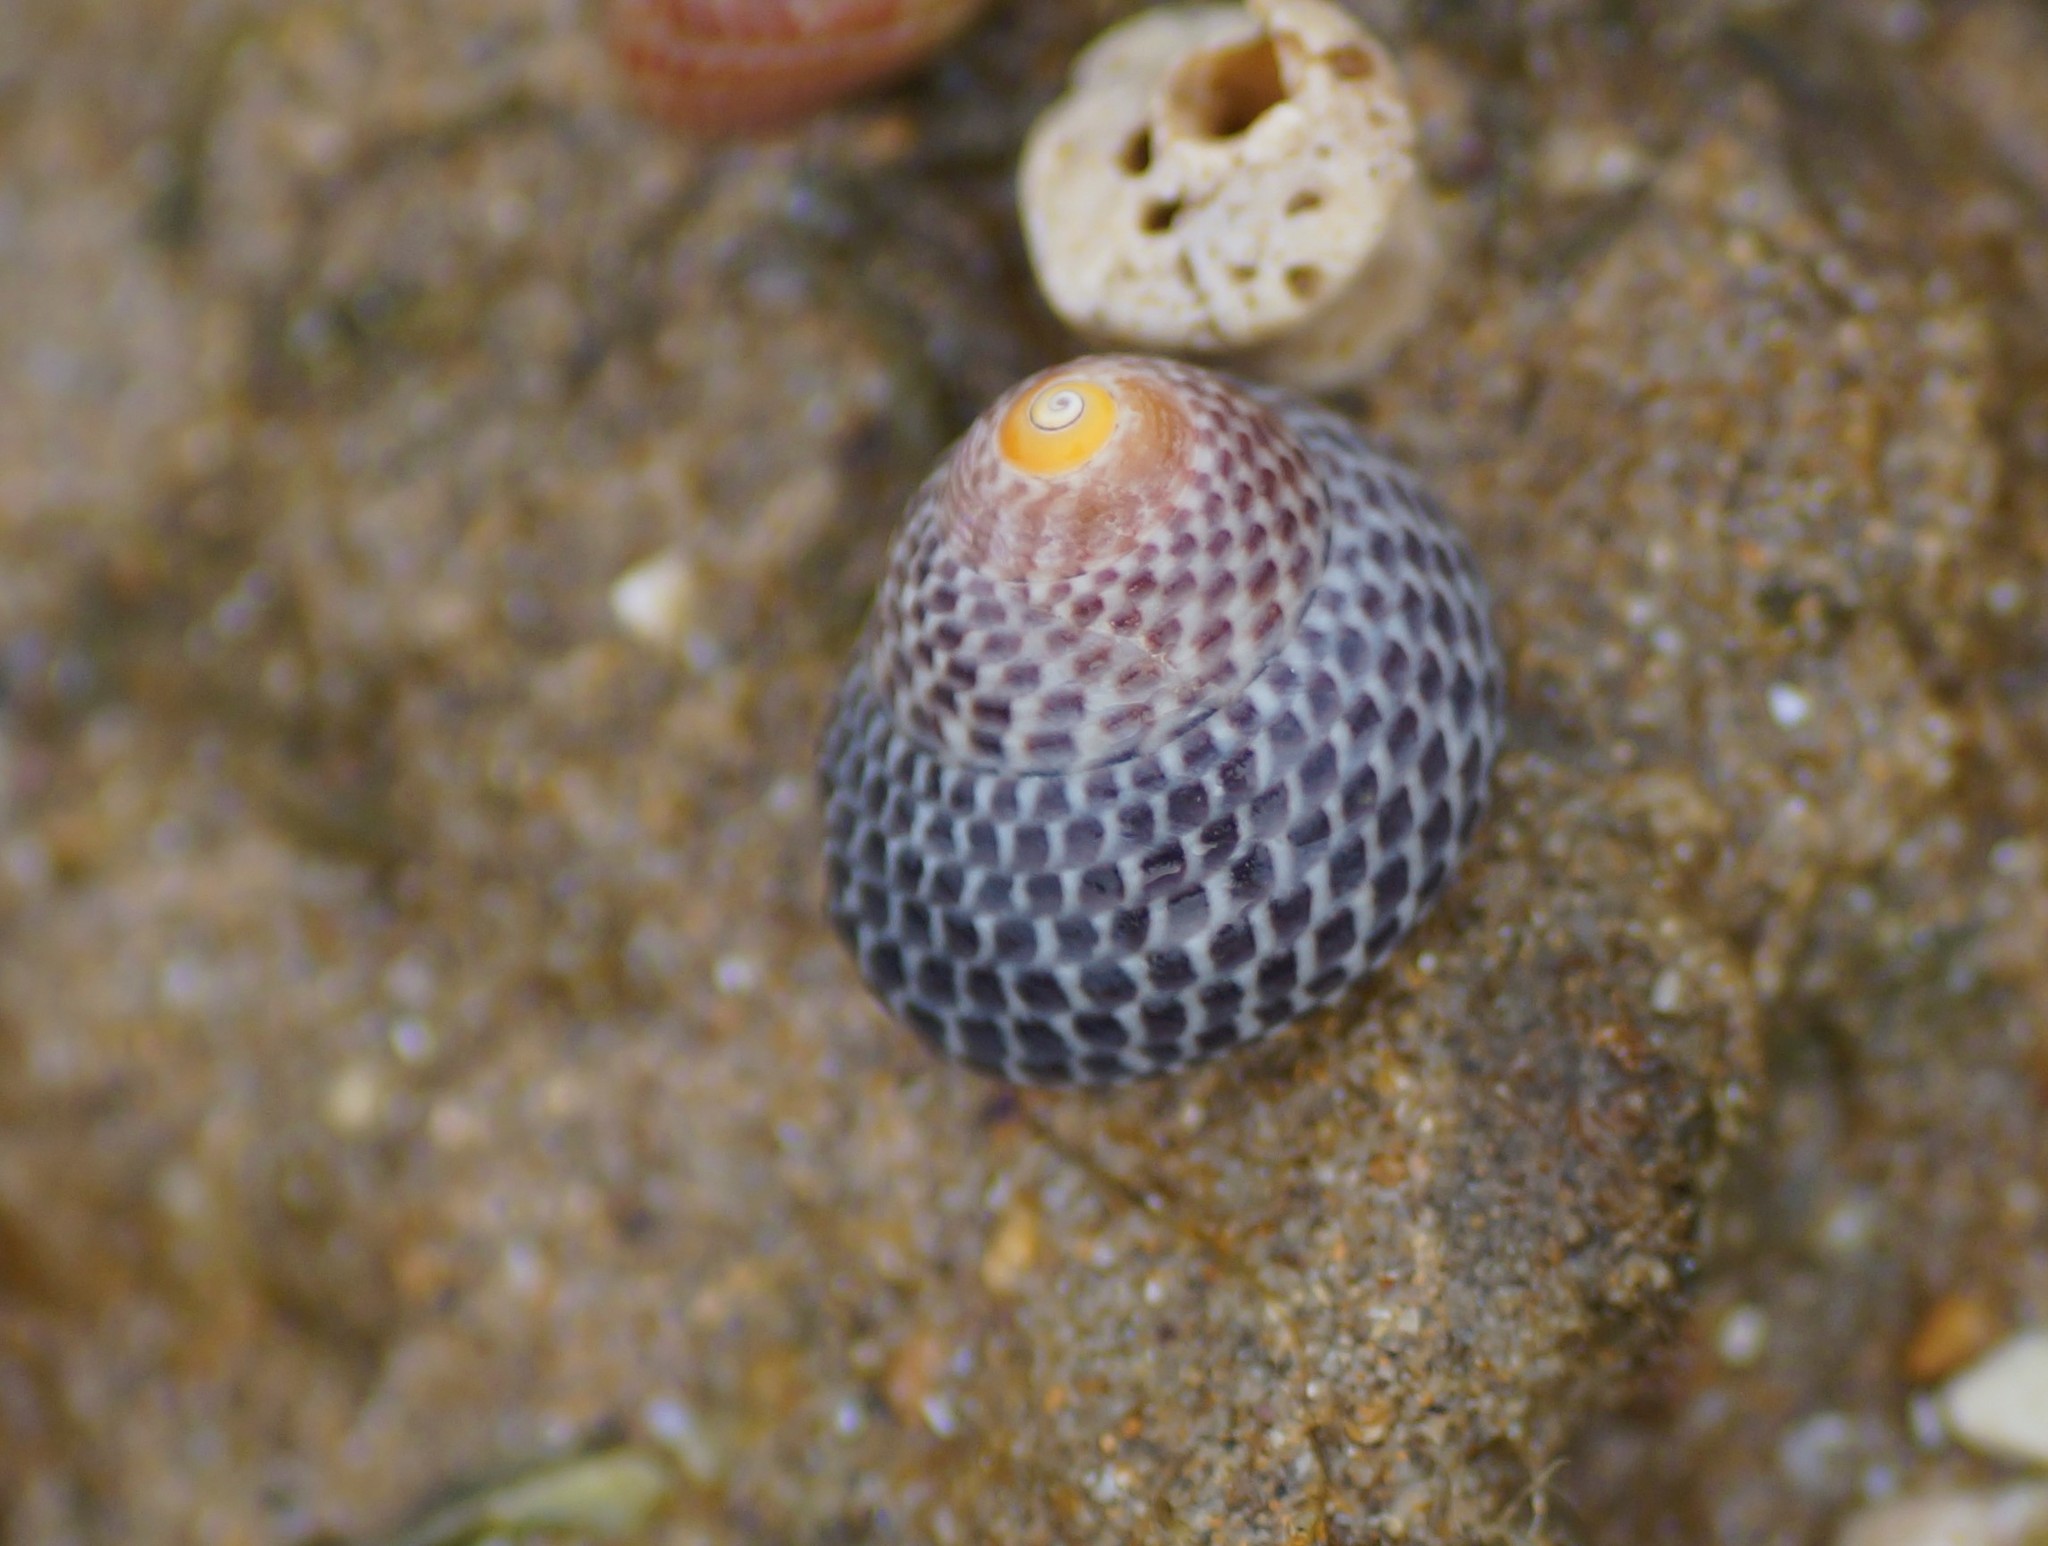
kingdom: Animalia
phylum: Mollusca
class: Gastropoda
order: Trochida
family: Trochidae
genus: Chlorodiloma
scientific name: Chlorodiloma adelaidae
